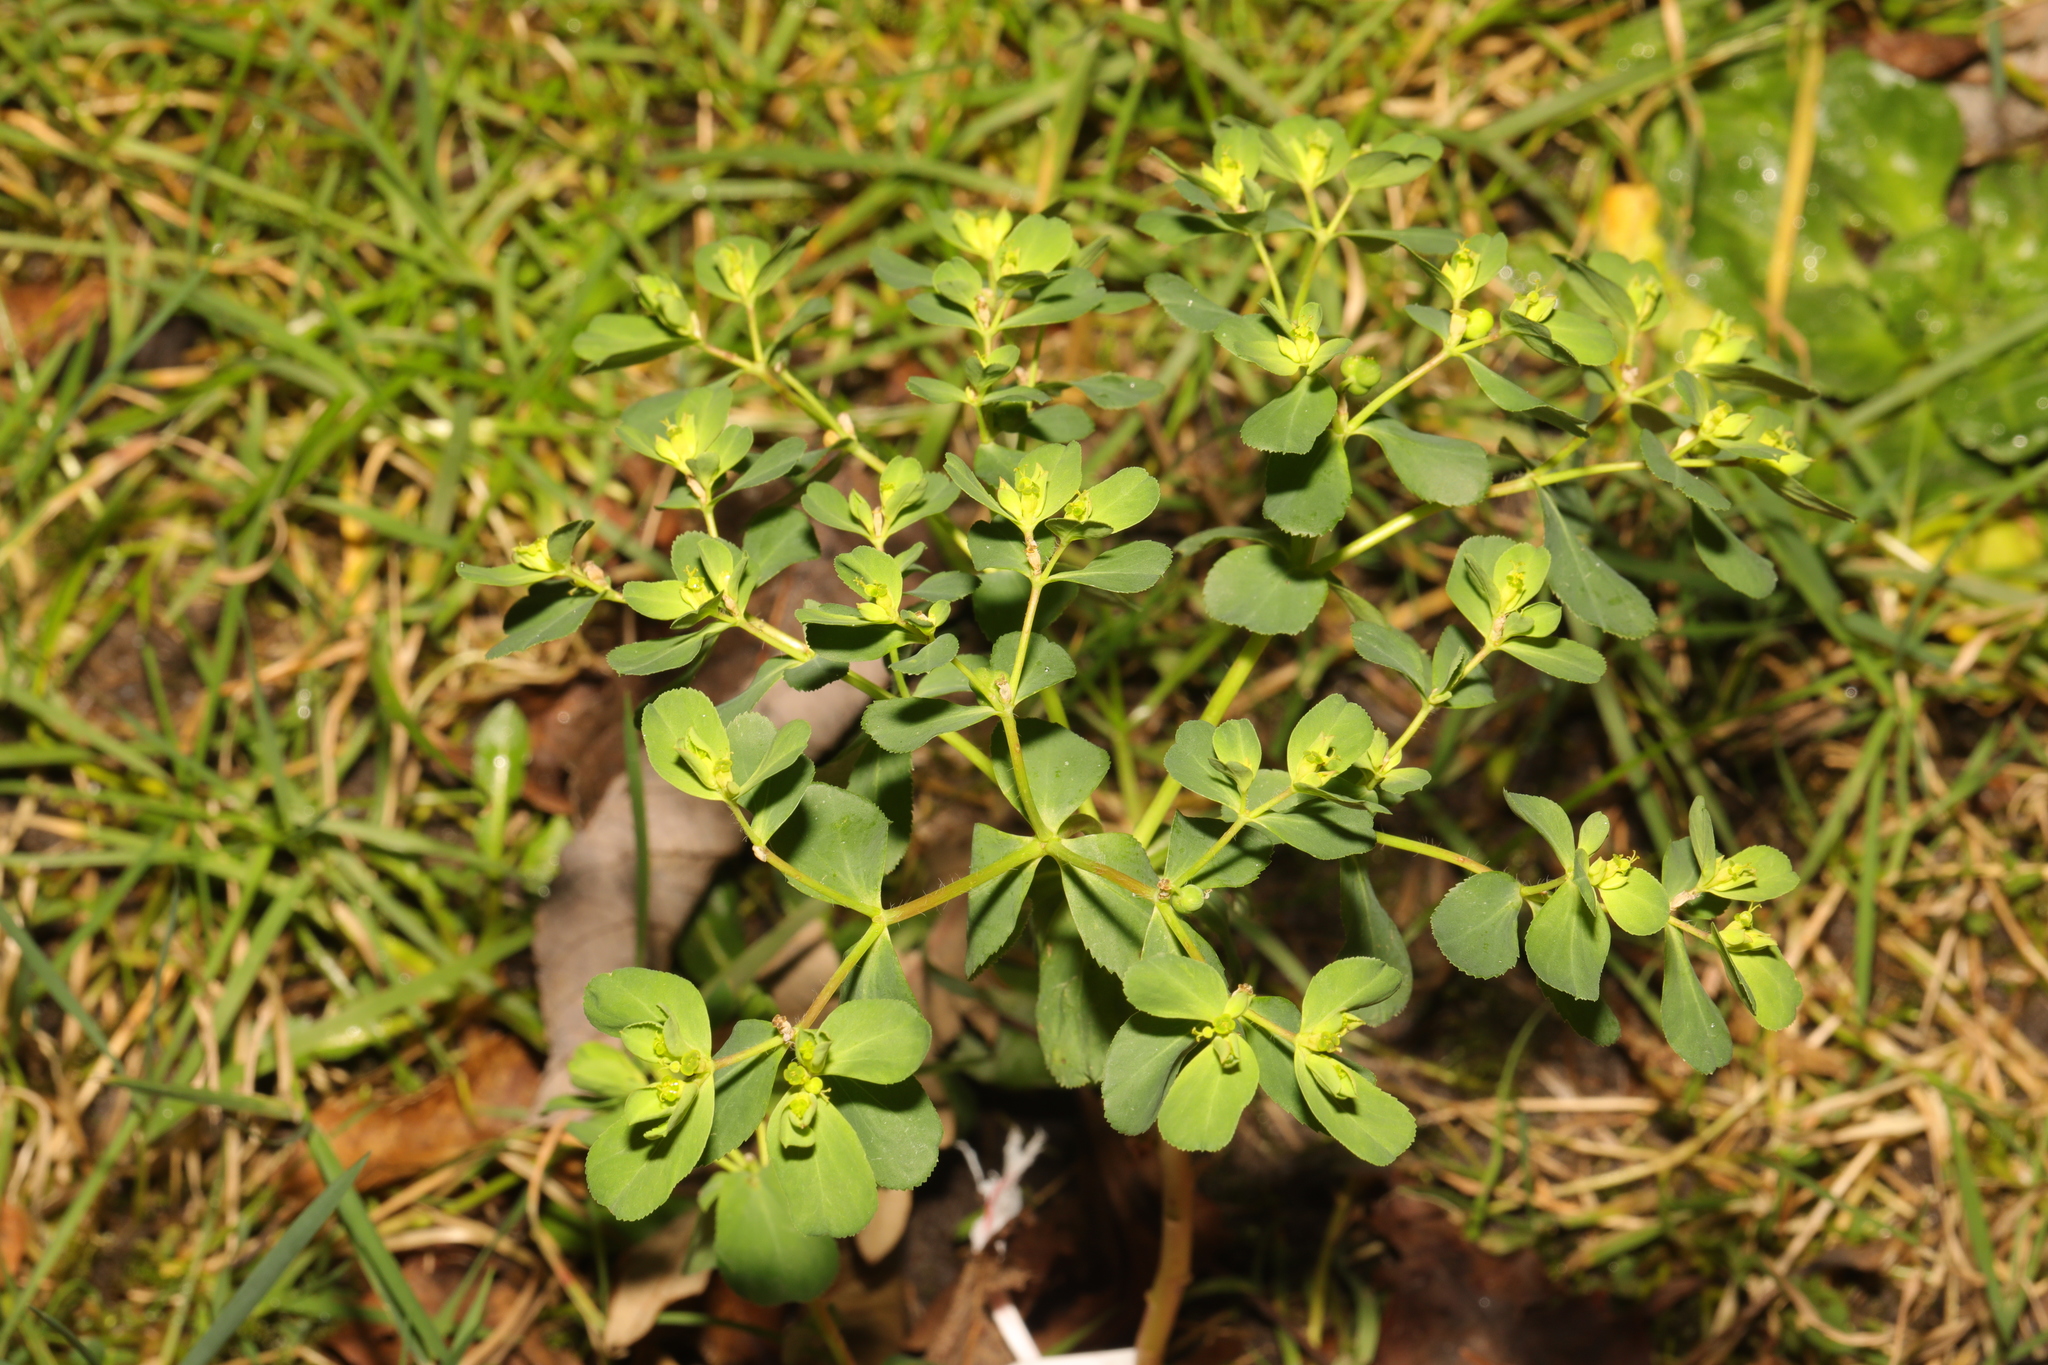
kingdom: Plantae
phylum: Tracheophyta
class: Magnoliopsida
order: Malpighiales
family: Euphorbiaceae
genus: Euphorbia
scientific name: Euphorbia peplus
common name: Petty spurge
